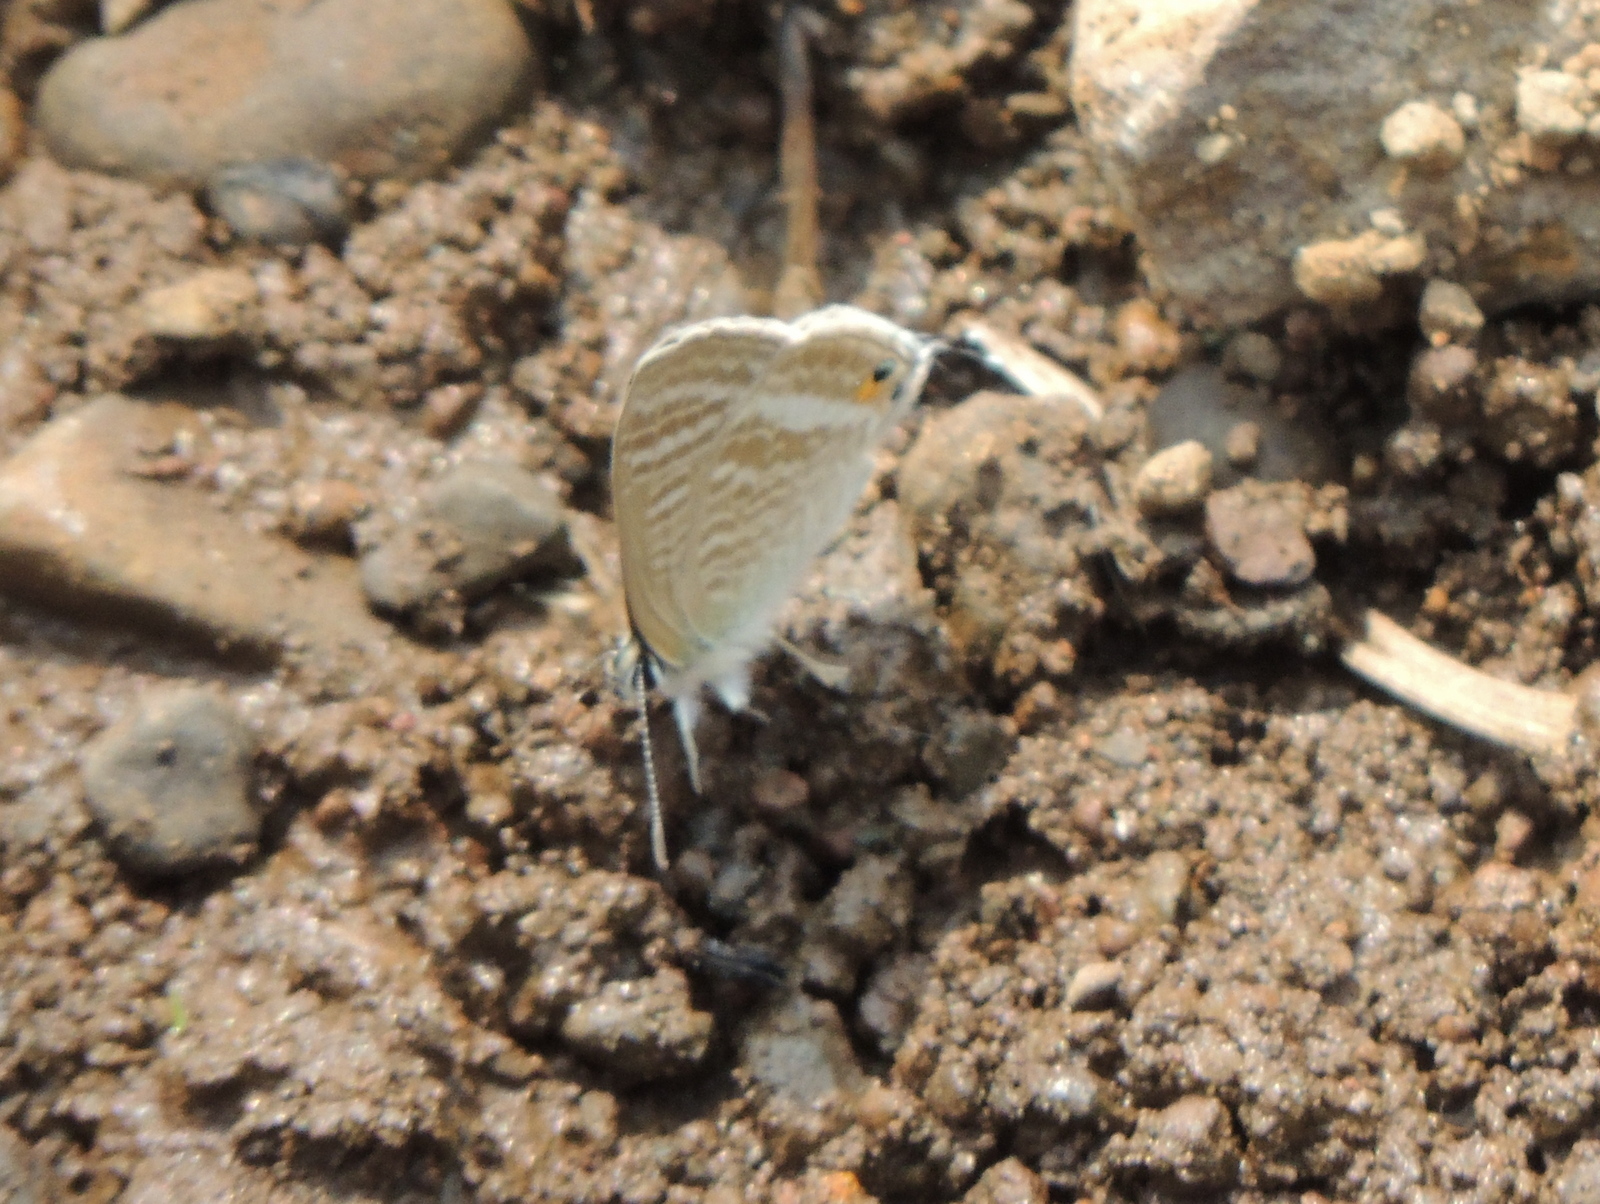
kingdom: Animalia
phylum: Arthropoda
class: Insecta
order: Lepidoptera
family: Lycaenidae
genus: Lampides
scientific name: Lampides boeticus
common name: Long-tailed blue
